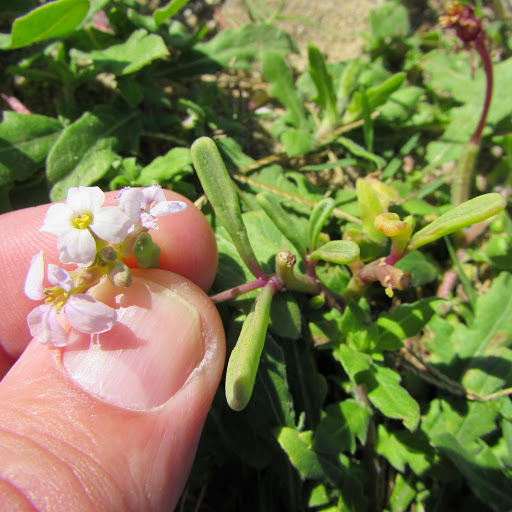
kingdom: Plantae
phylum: Tracheophyta
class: Magnoliopsida
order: Brassicales
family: Brassicaceae
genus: Cakile
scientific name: Cakile maritima
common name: Sea rocket
